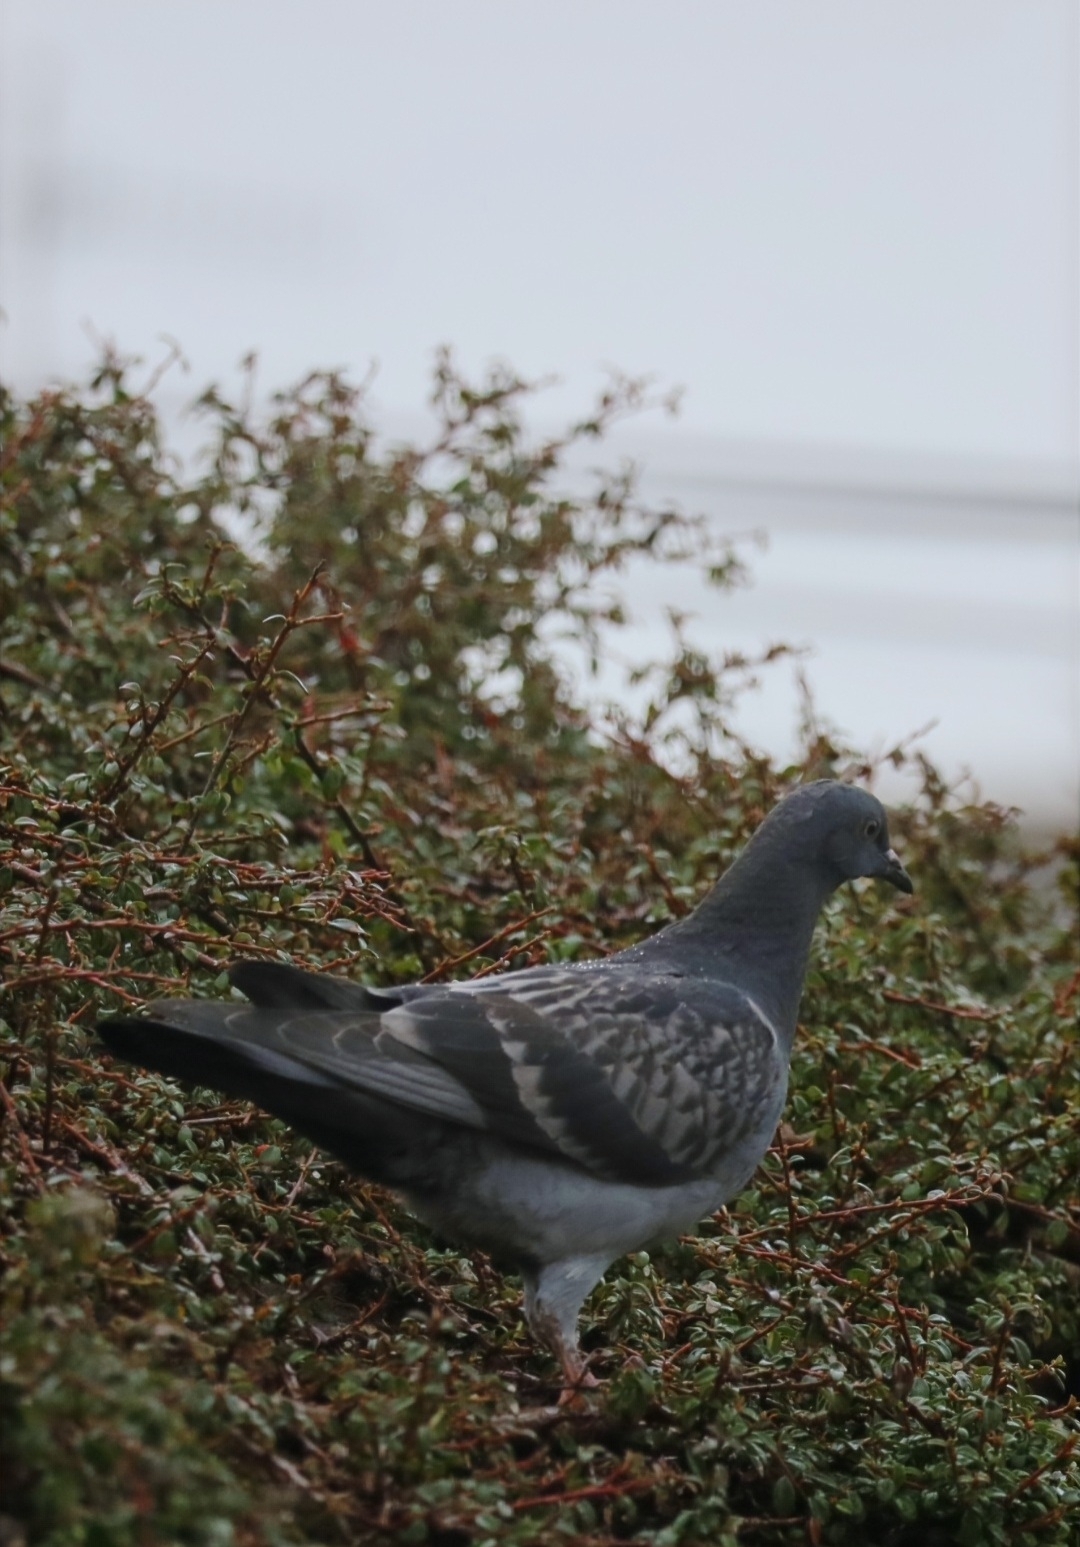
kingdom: Animalia
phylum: Chordata
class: Aves
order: Columbiformes
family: Columbidae
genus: Columba
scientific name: Columba livia
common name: Rock pigeon
